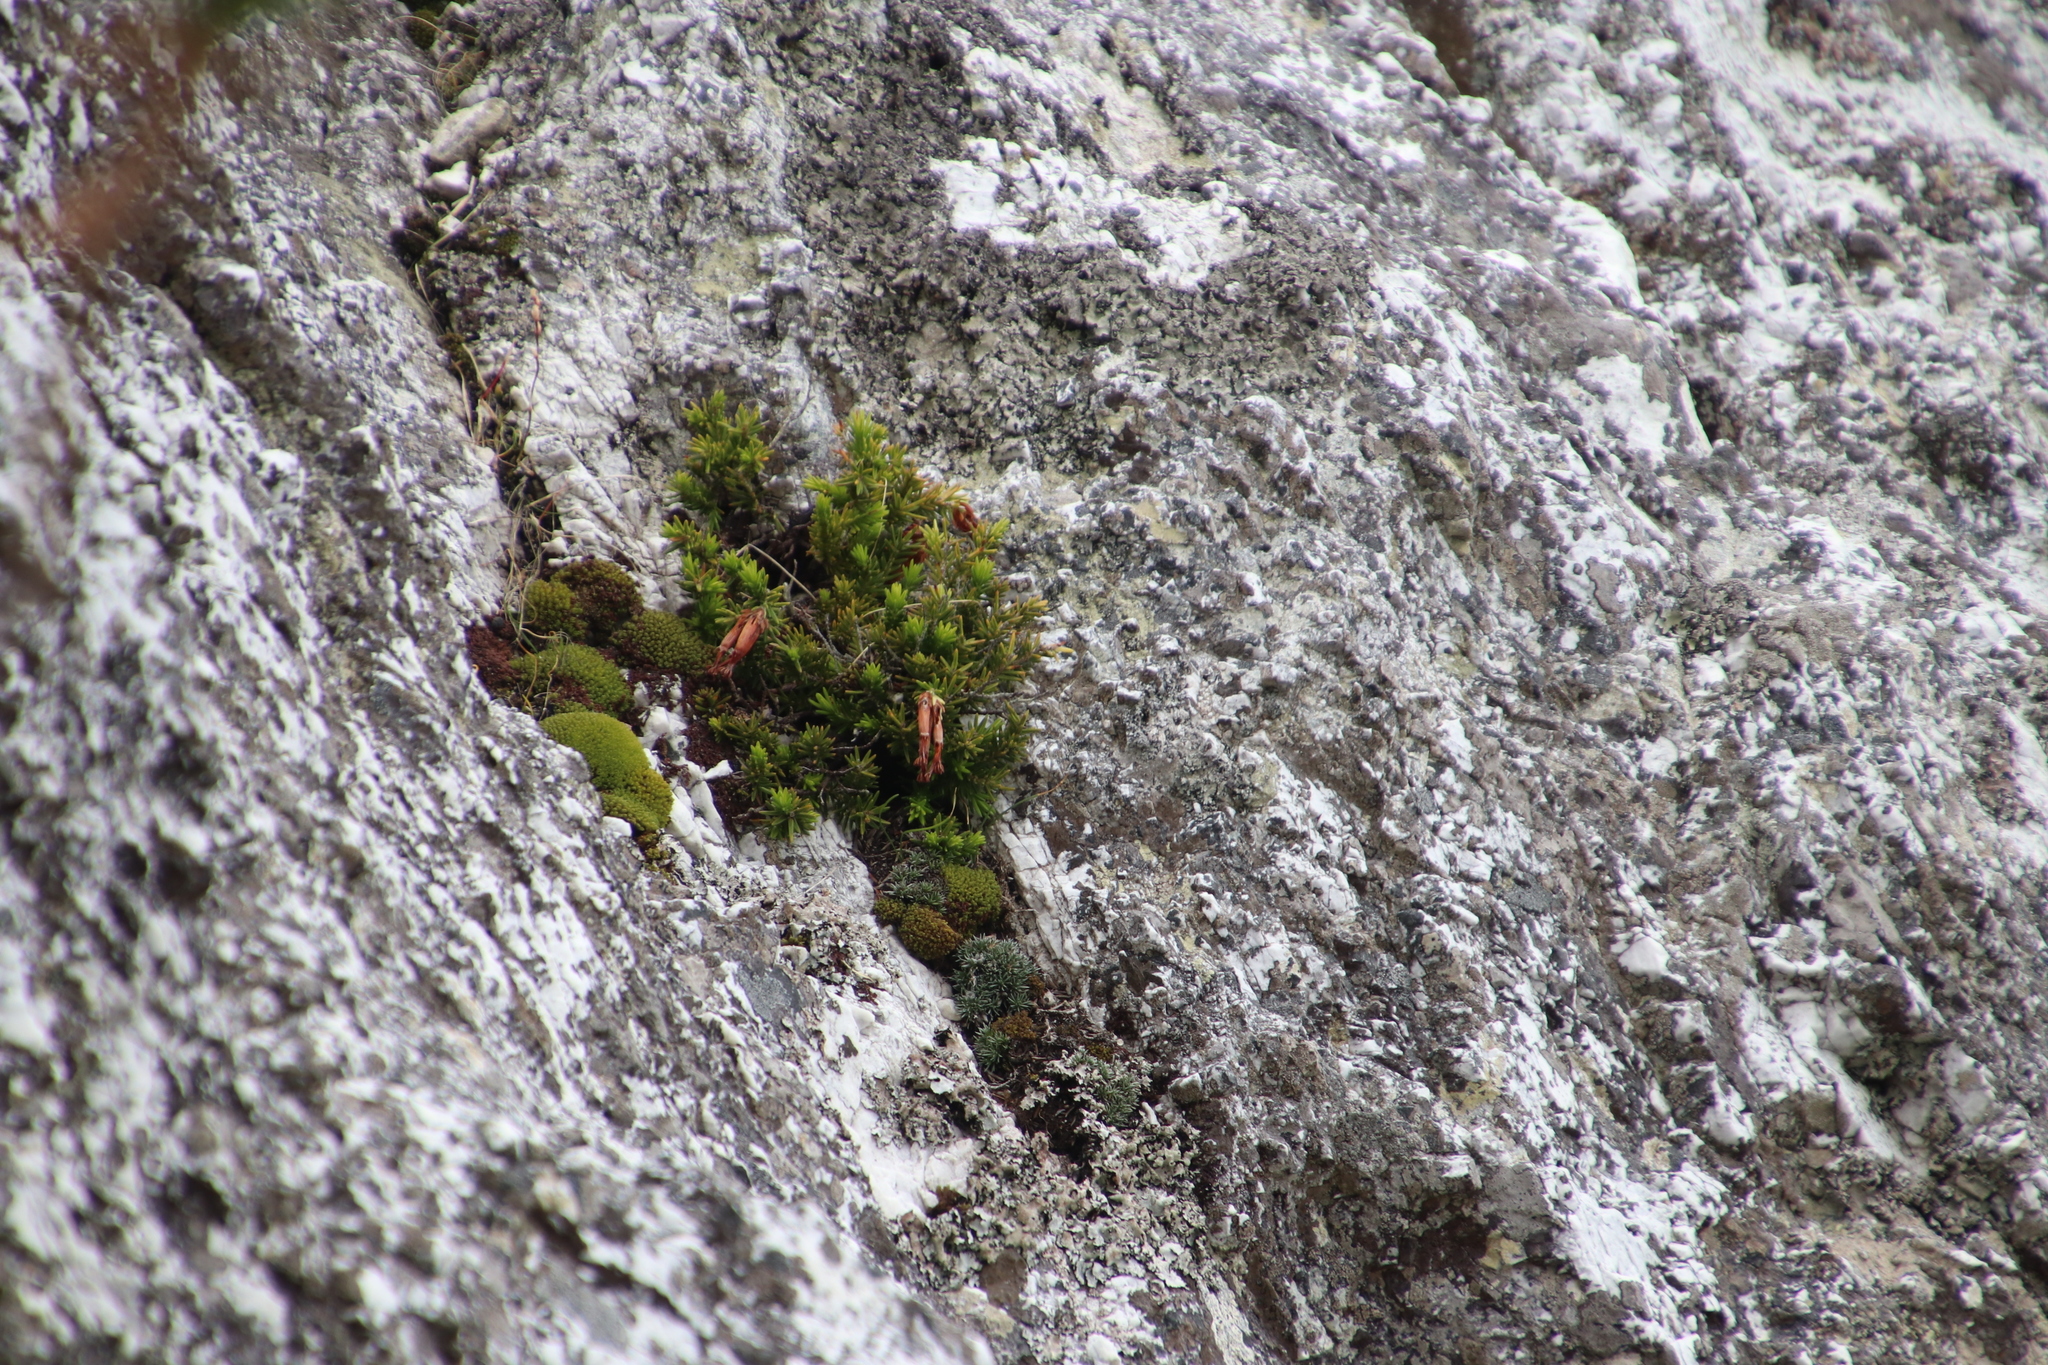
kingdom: Plantae
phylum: Tracheophyta
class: Magnoliopsida
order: Ericales
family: Ericaceae
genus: Erica
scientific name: Erica banksia
